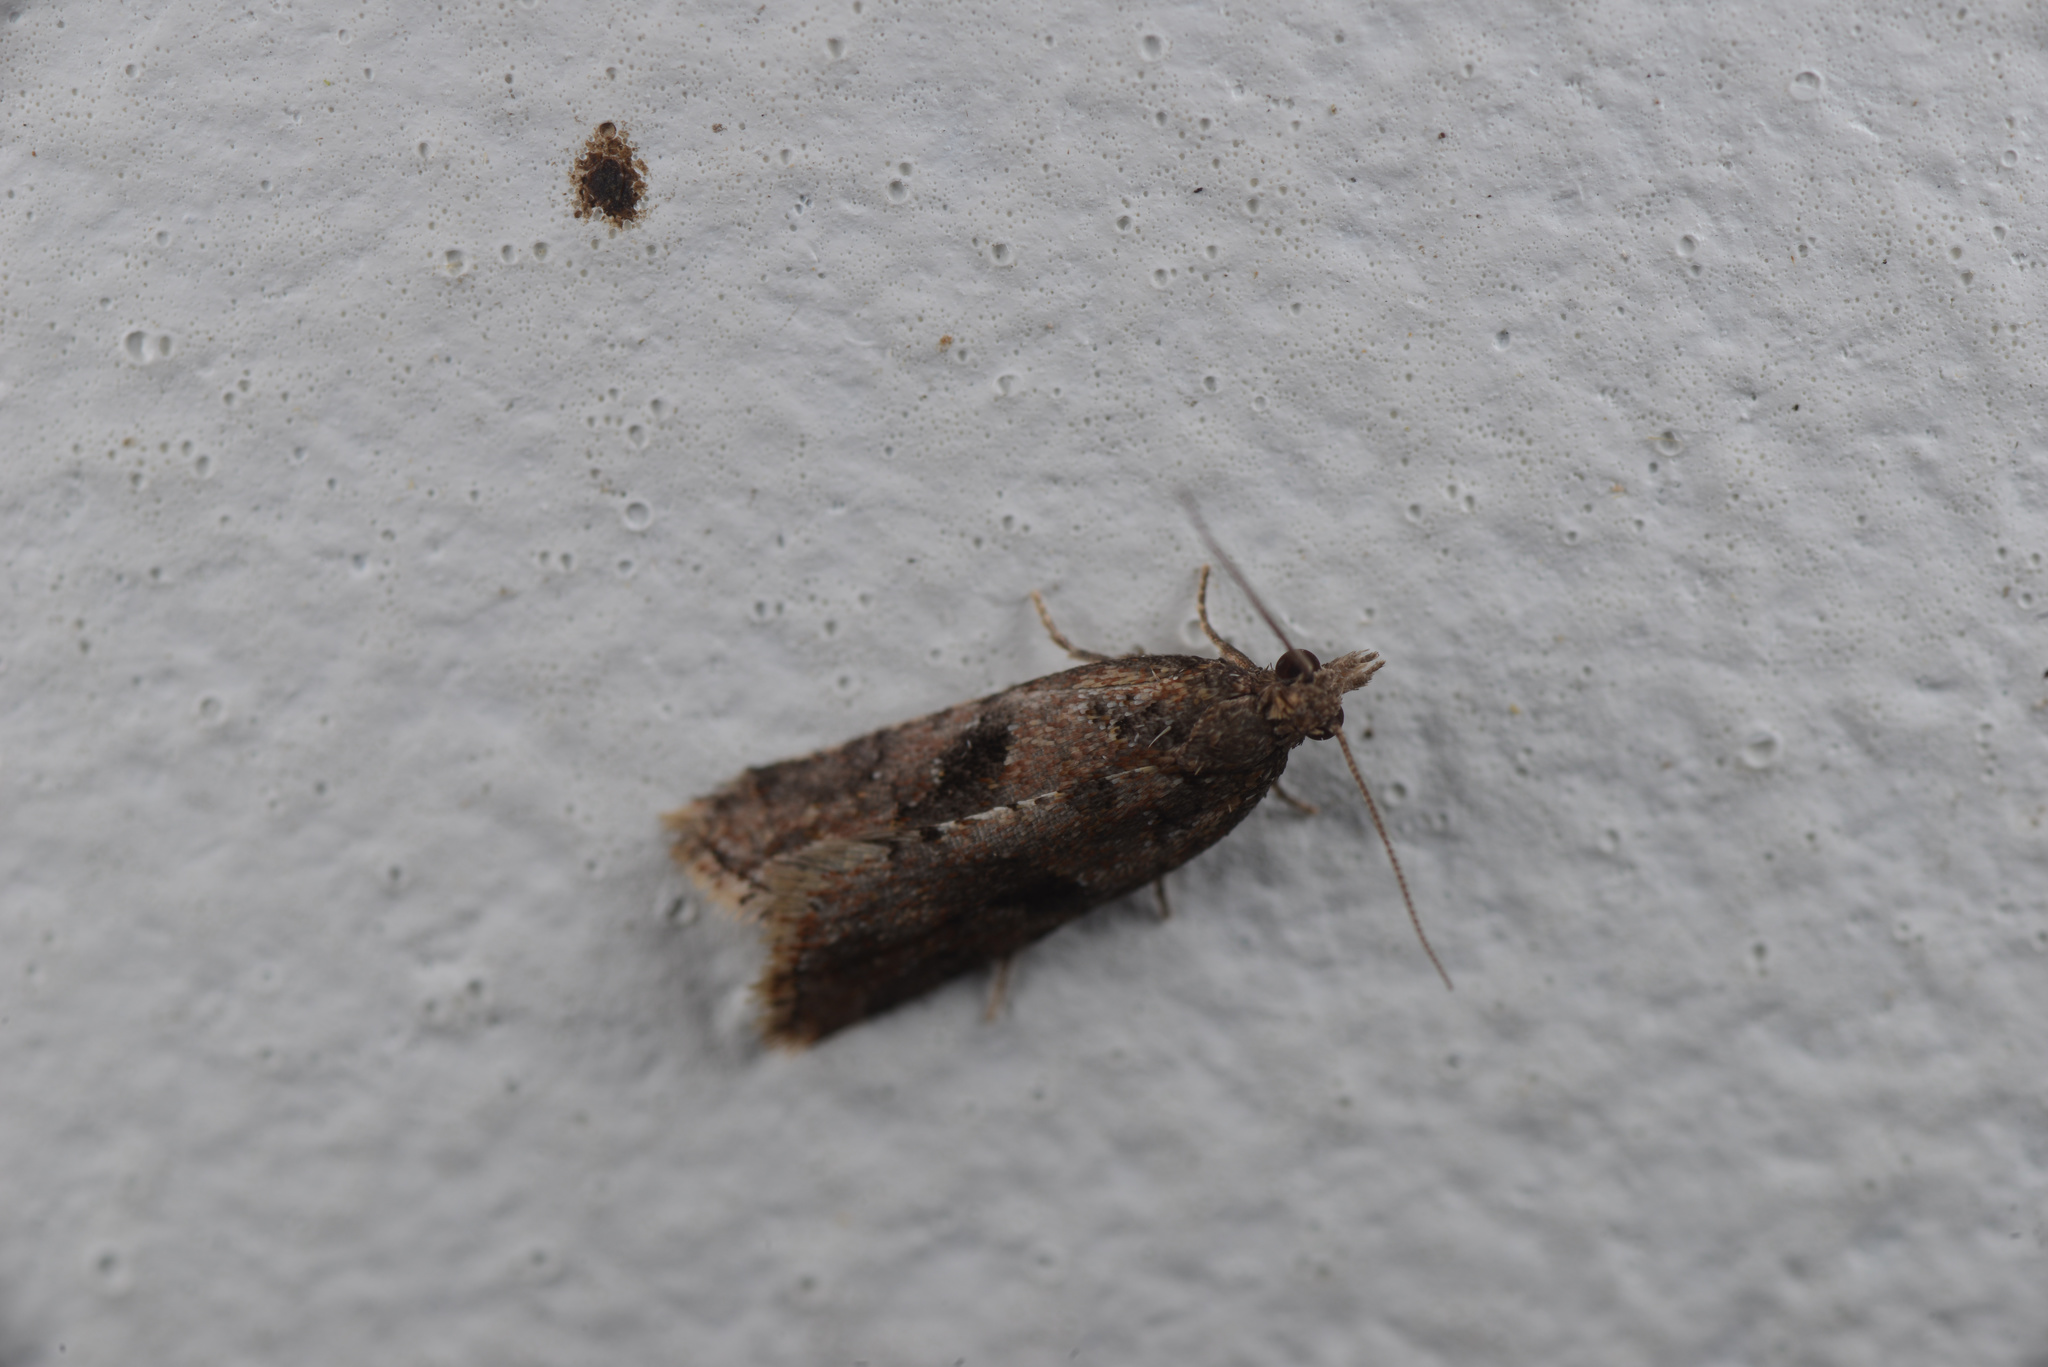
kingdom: Animalia
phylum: Arthropoda
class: Insecta
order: Lepidoptera
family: Tortricidae
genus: Capua
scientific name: Capua semiferana
